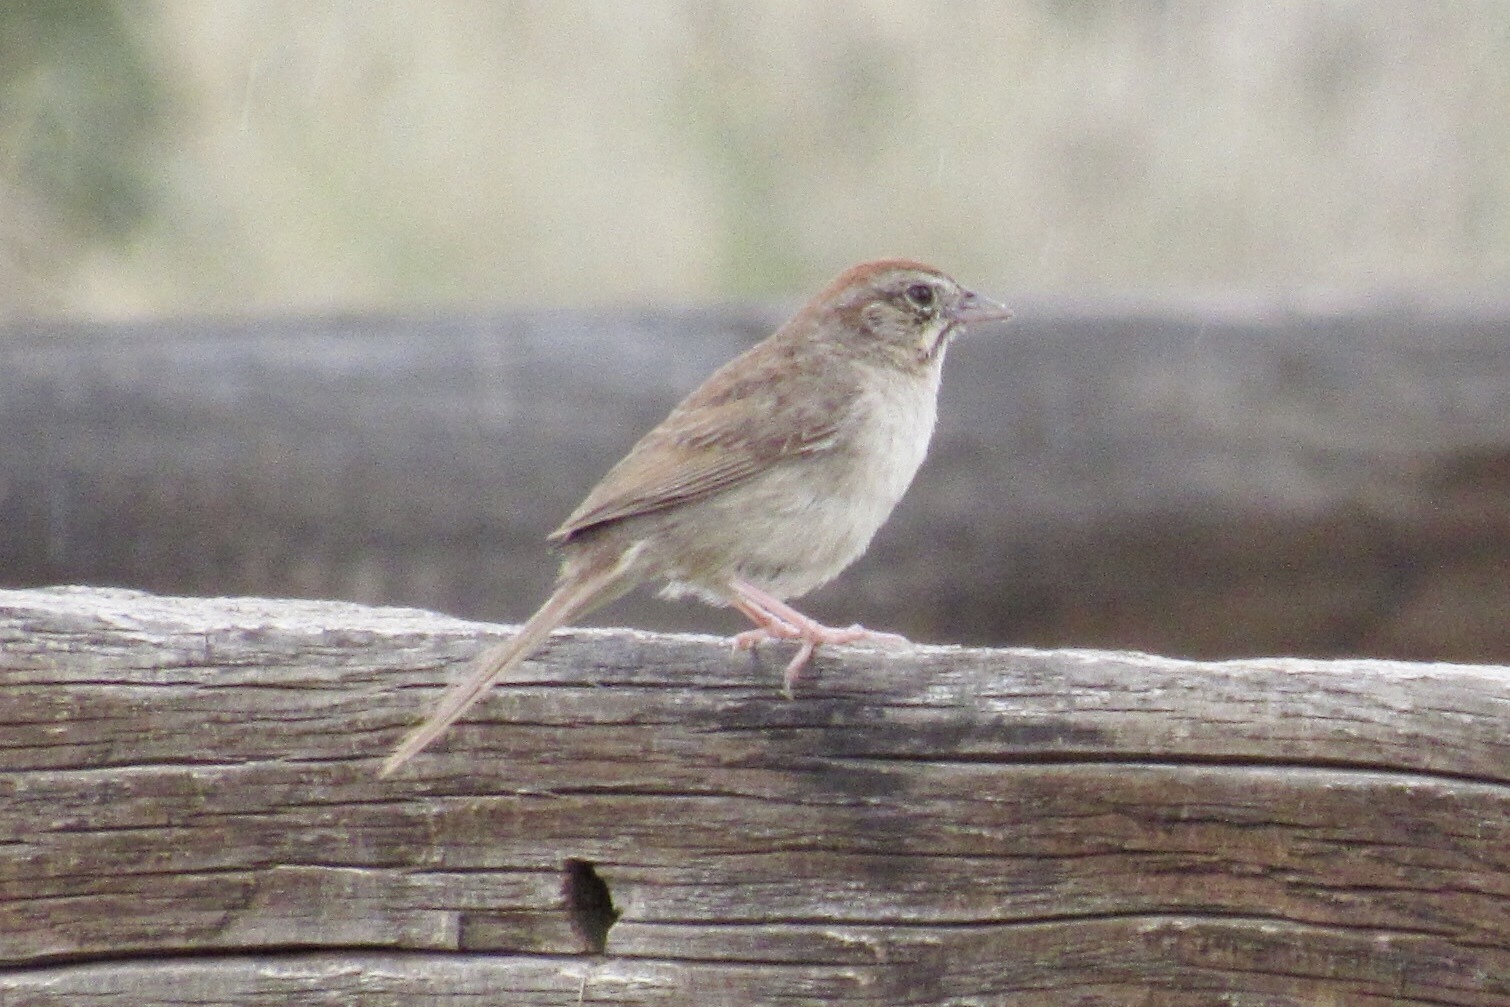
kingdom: Animalia
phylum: Chordata
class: Aves
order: Passeriformes
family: Passerellidae
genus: Aimophila
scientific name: Aimophila ruficeps
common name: Rufous-crowned sparrow
